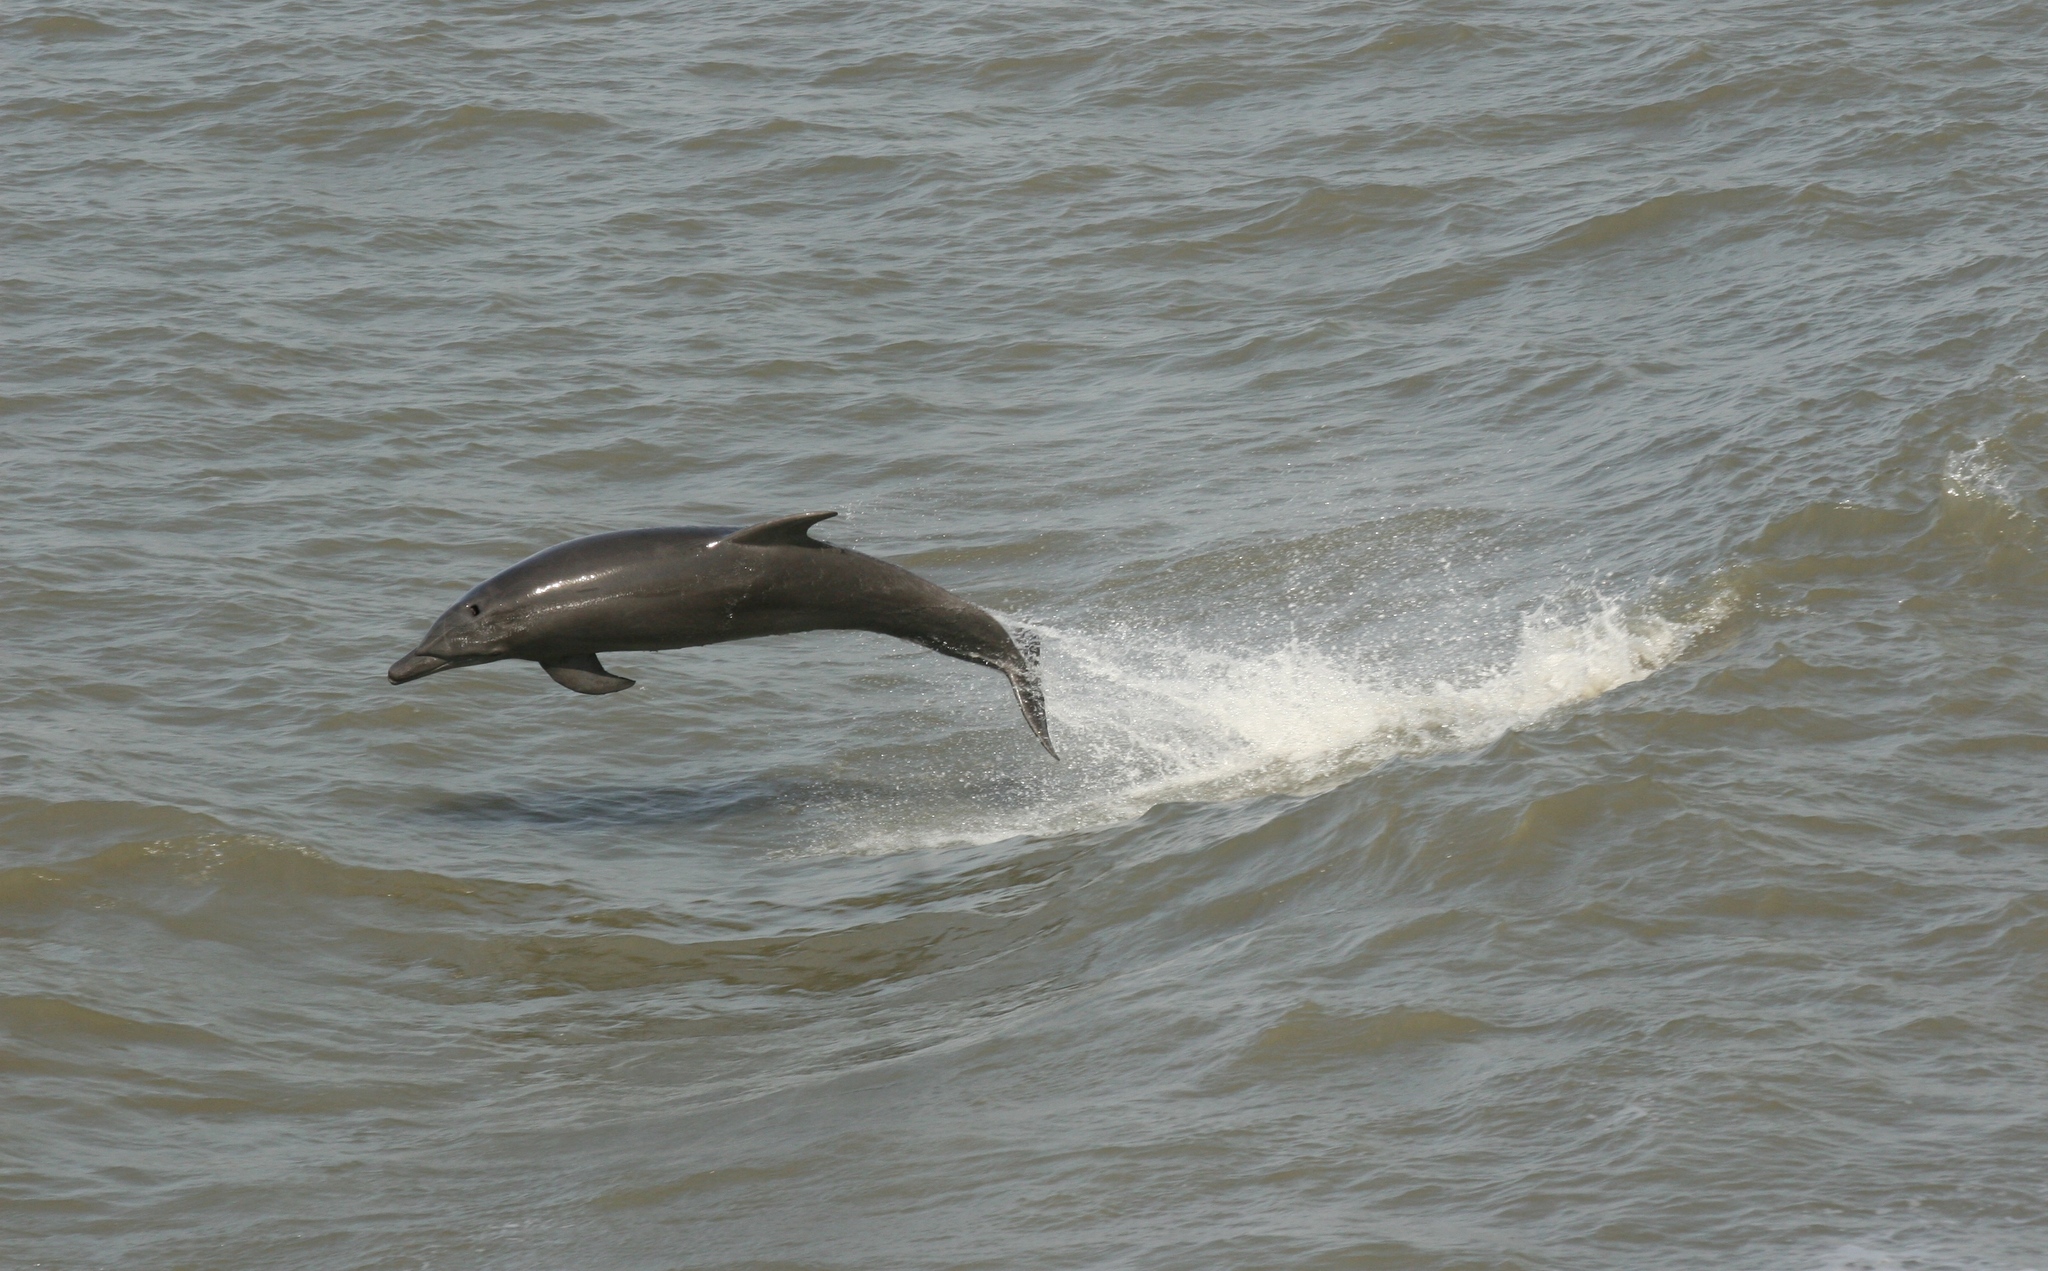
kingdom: Animalia
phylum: Chordata
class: Mammalia
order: Cetacea
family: Delphinidae
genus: Tursiops
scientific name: Tursiops truncatus
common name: Bottlenose dolphin
